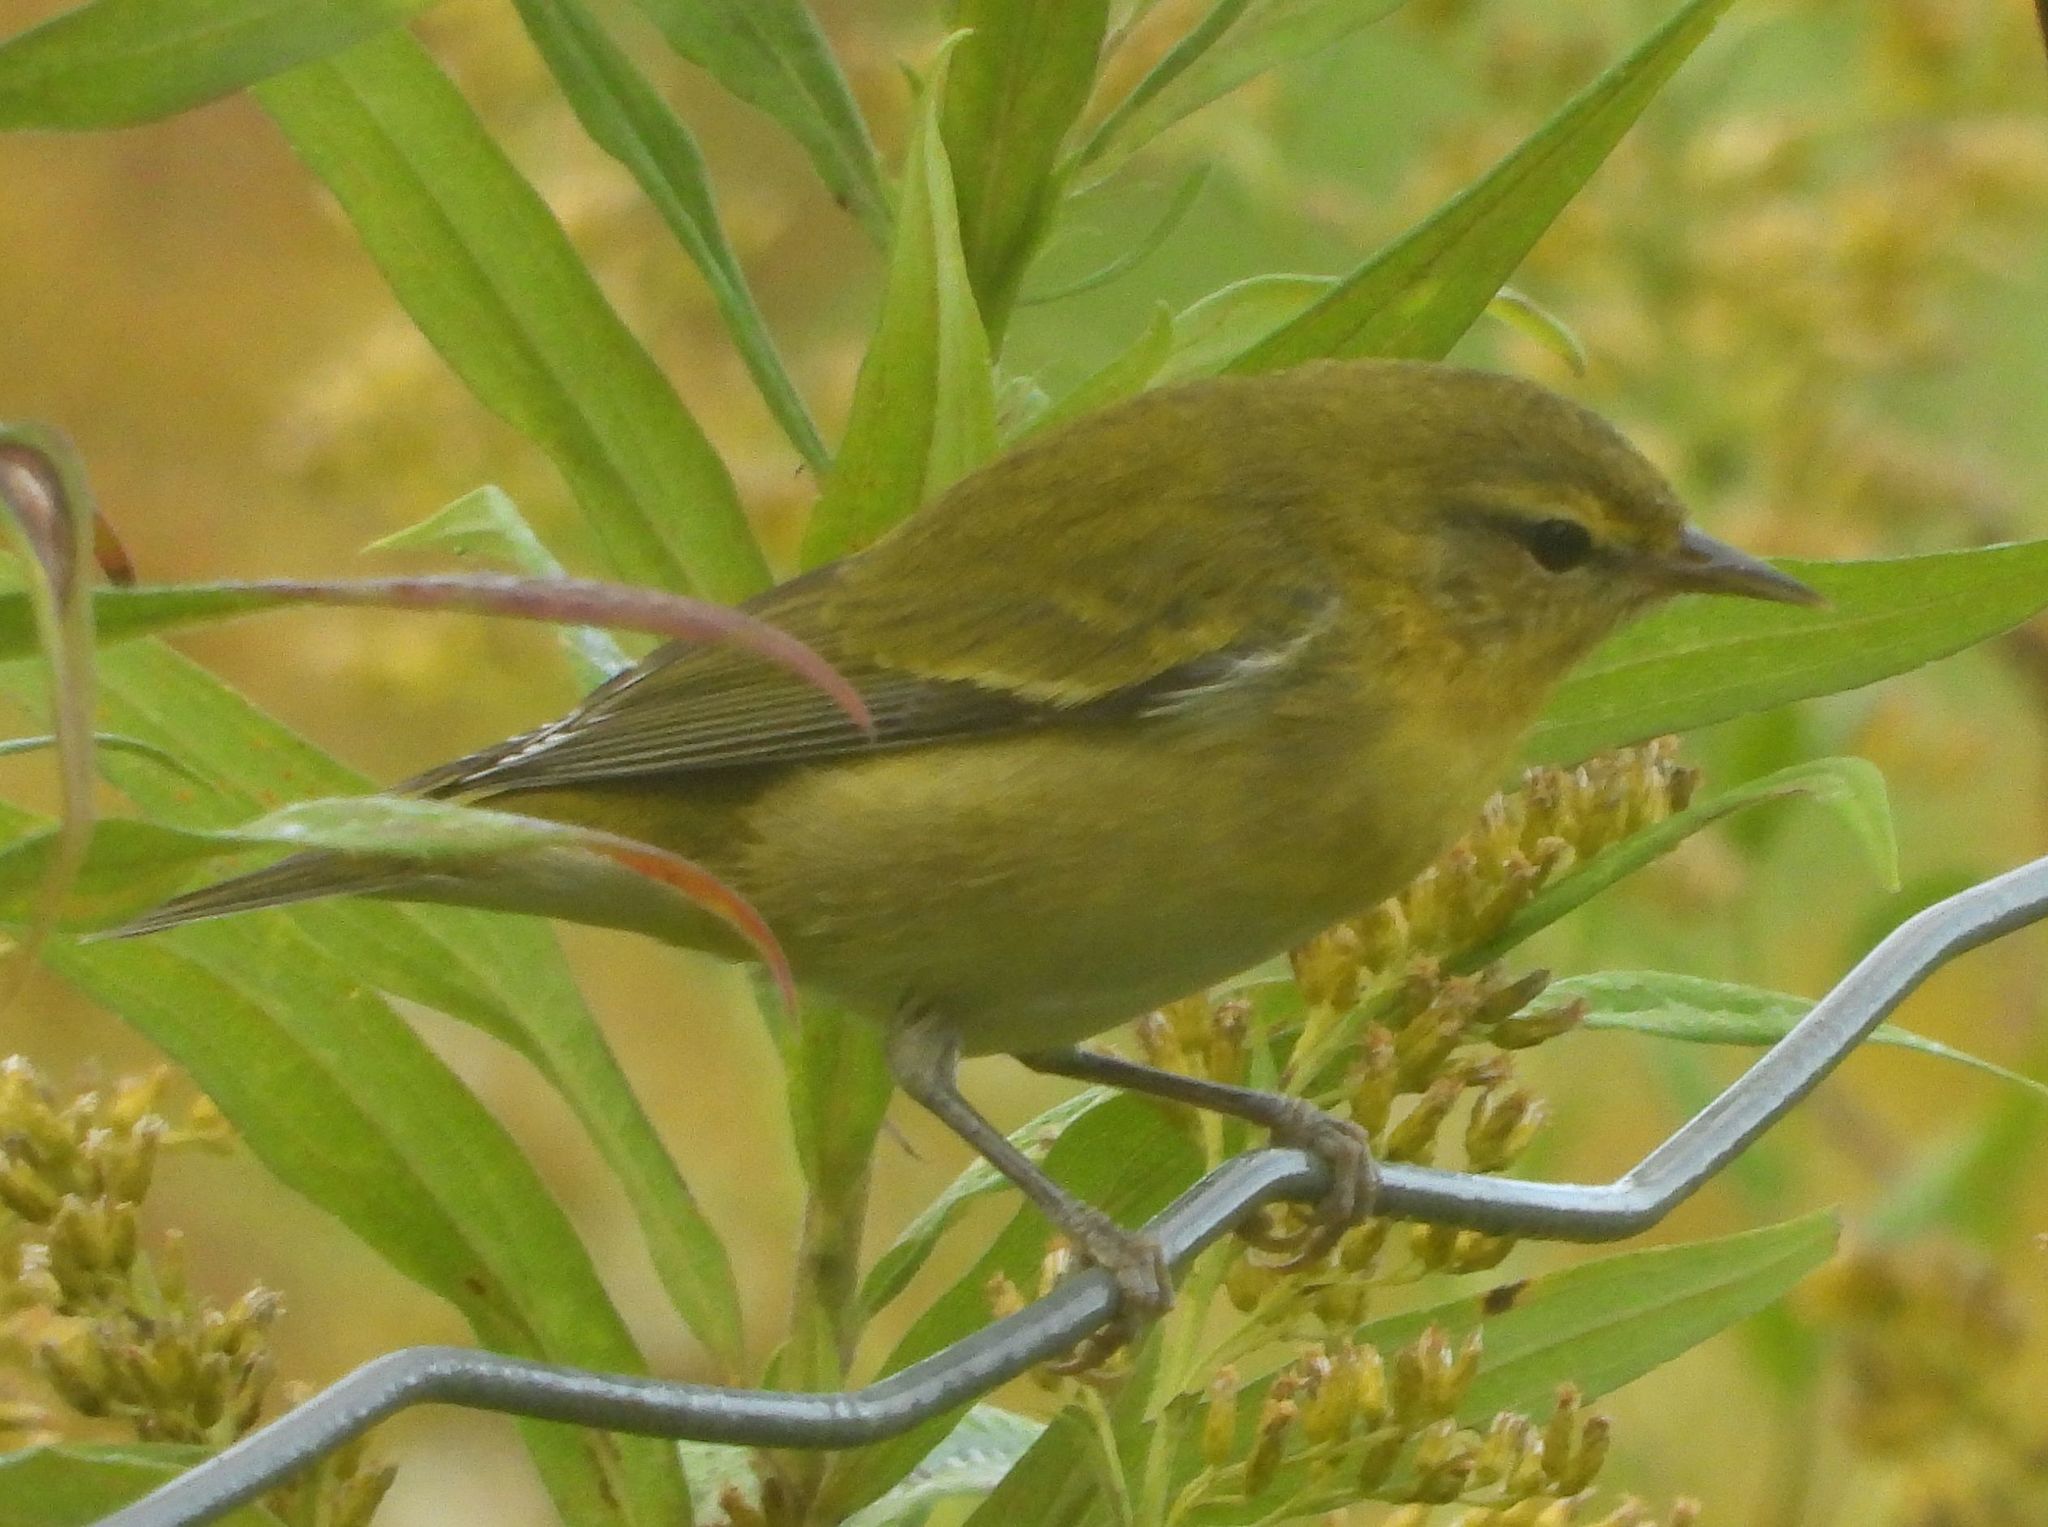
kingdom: Animalia
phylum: Chordata
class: Aves
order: Passeriformes
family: Parulidae
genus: Leiothlypis
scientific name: Leiothlypis peregrina
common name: Tennessee warbler
